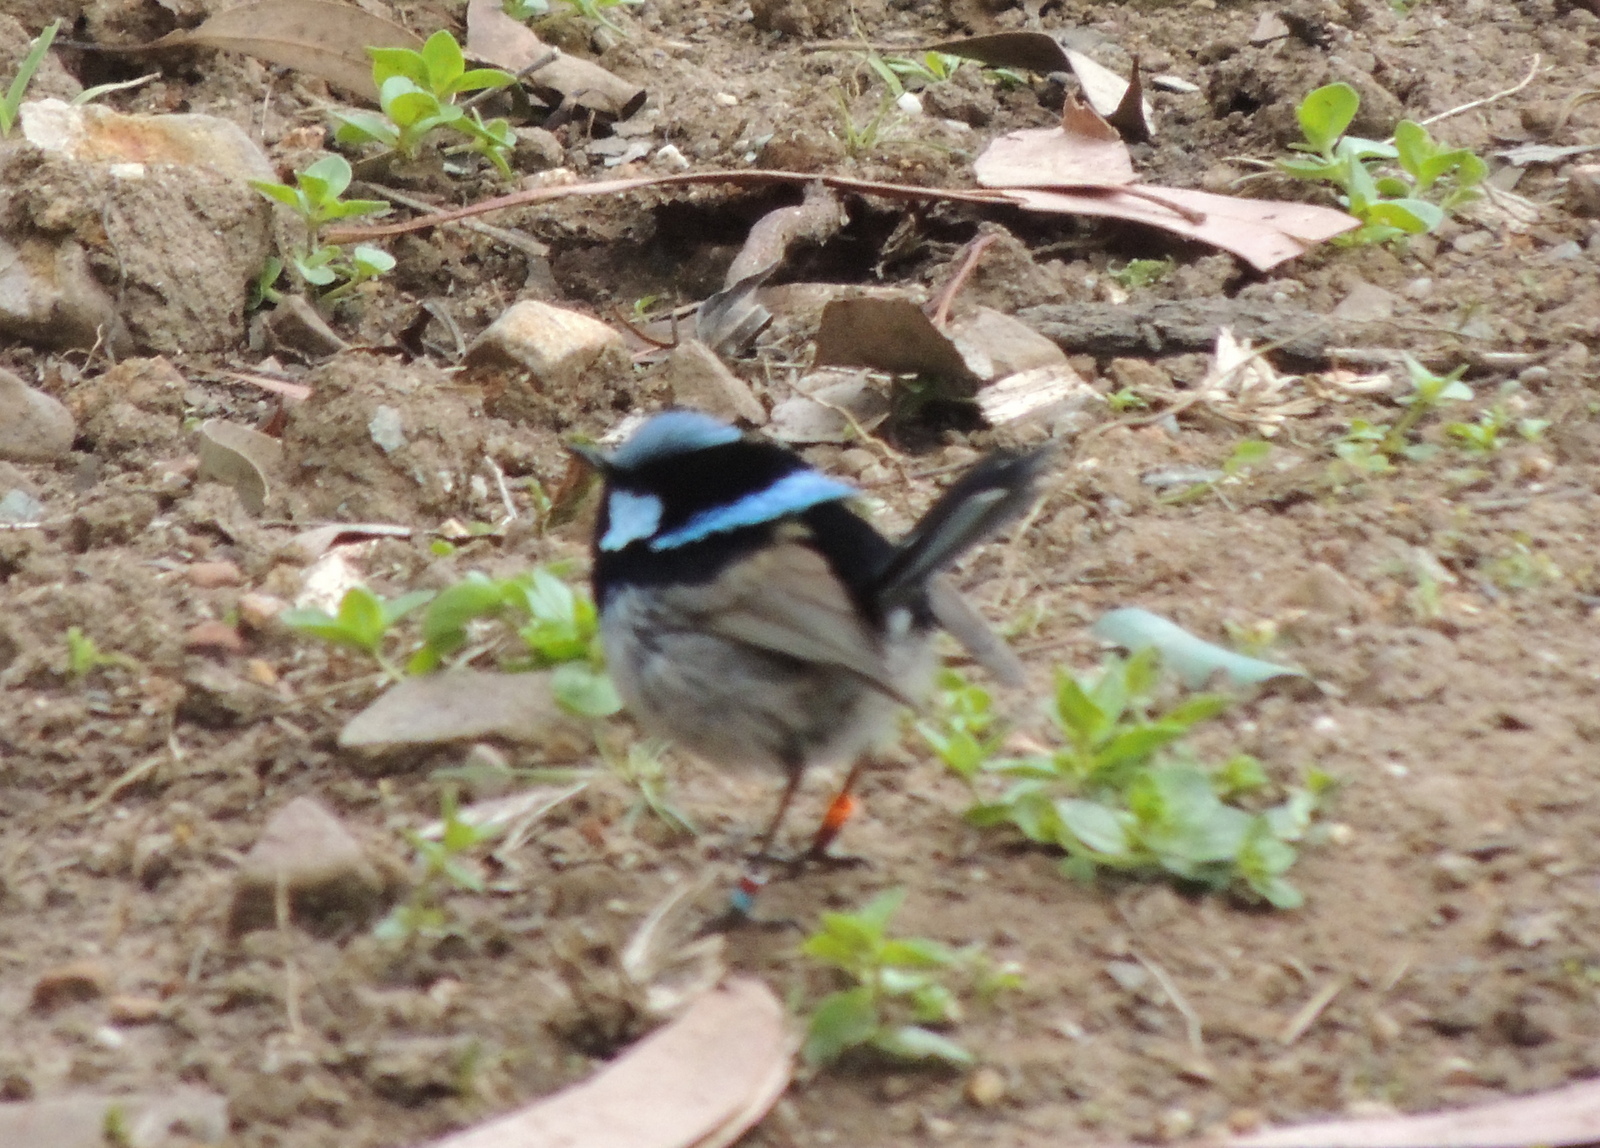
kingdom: Animalia
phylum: Chordata
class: Aves
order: Passeriformes
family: Maluridae
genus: Malurus
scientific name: Malurus cyaneus
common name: Superb fairywren
